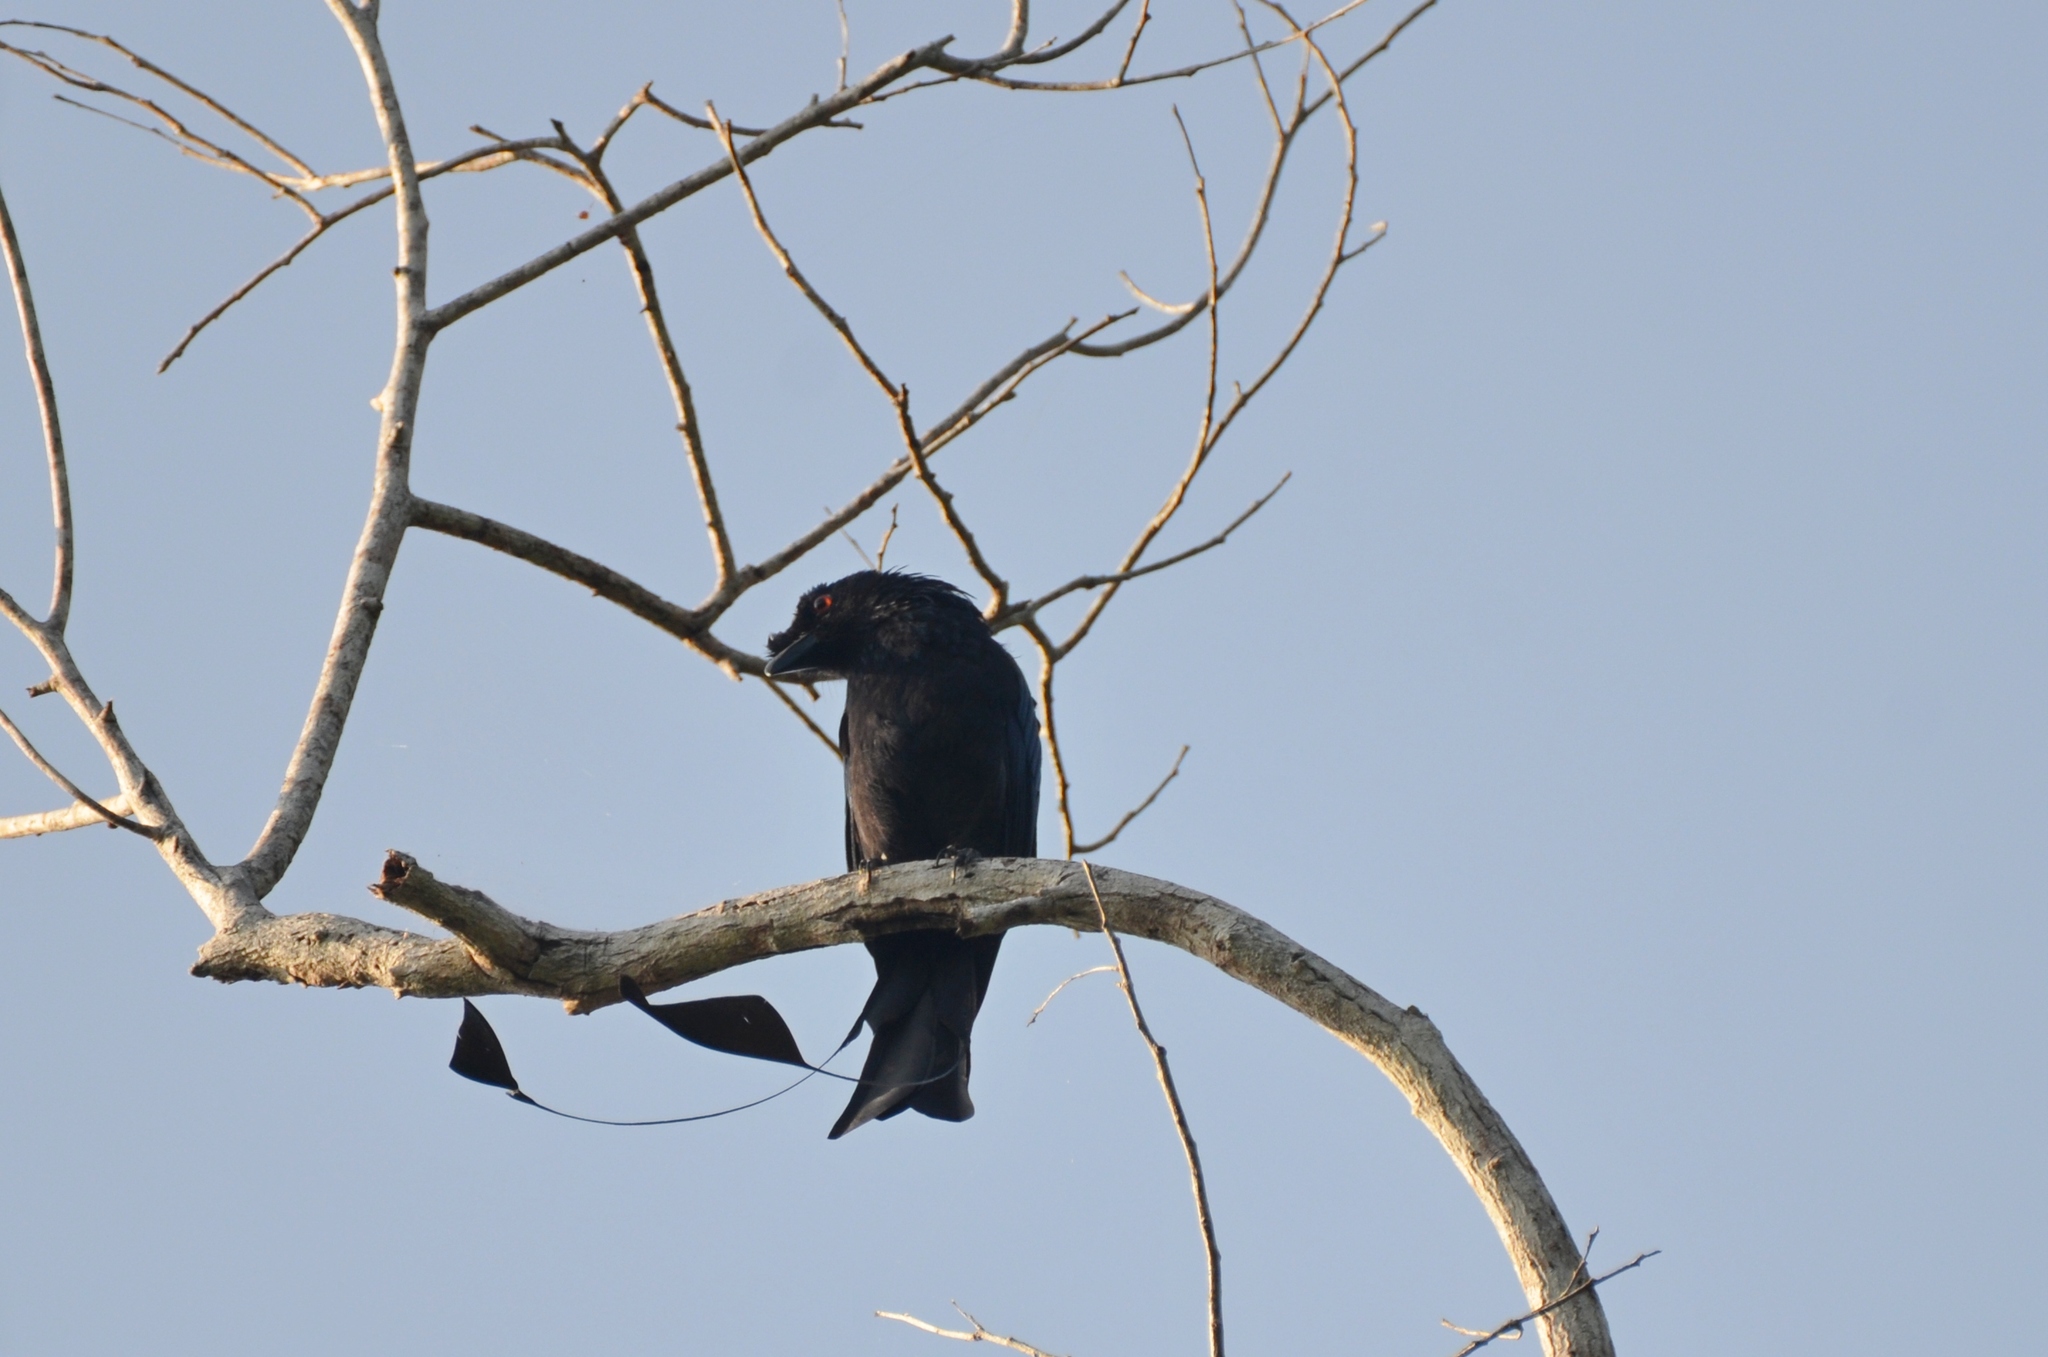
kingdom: Animalia
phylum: Chordata
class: Aves
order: Passeriformes
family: Dicruridae
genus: Dicrurus
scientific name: Dicrurus paradiseus
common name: Greater racket-tailed drongo
